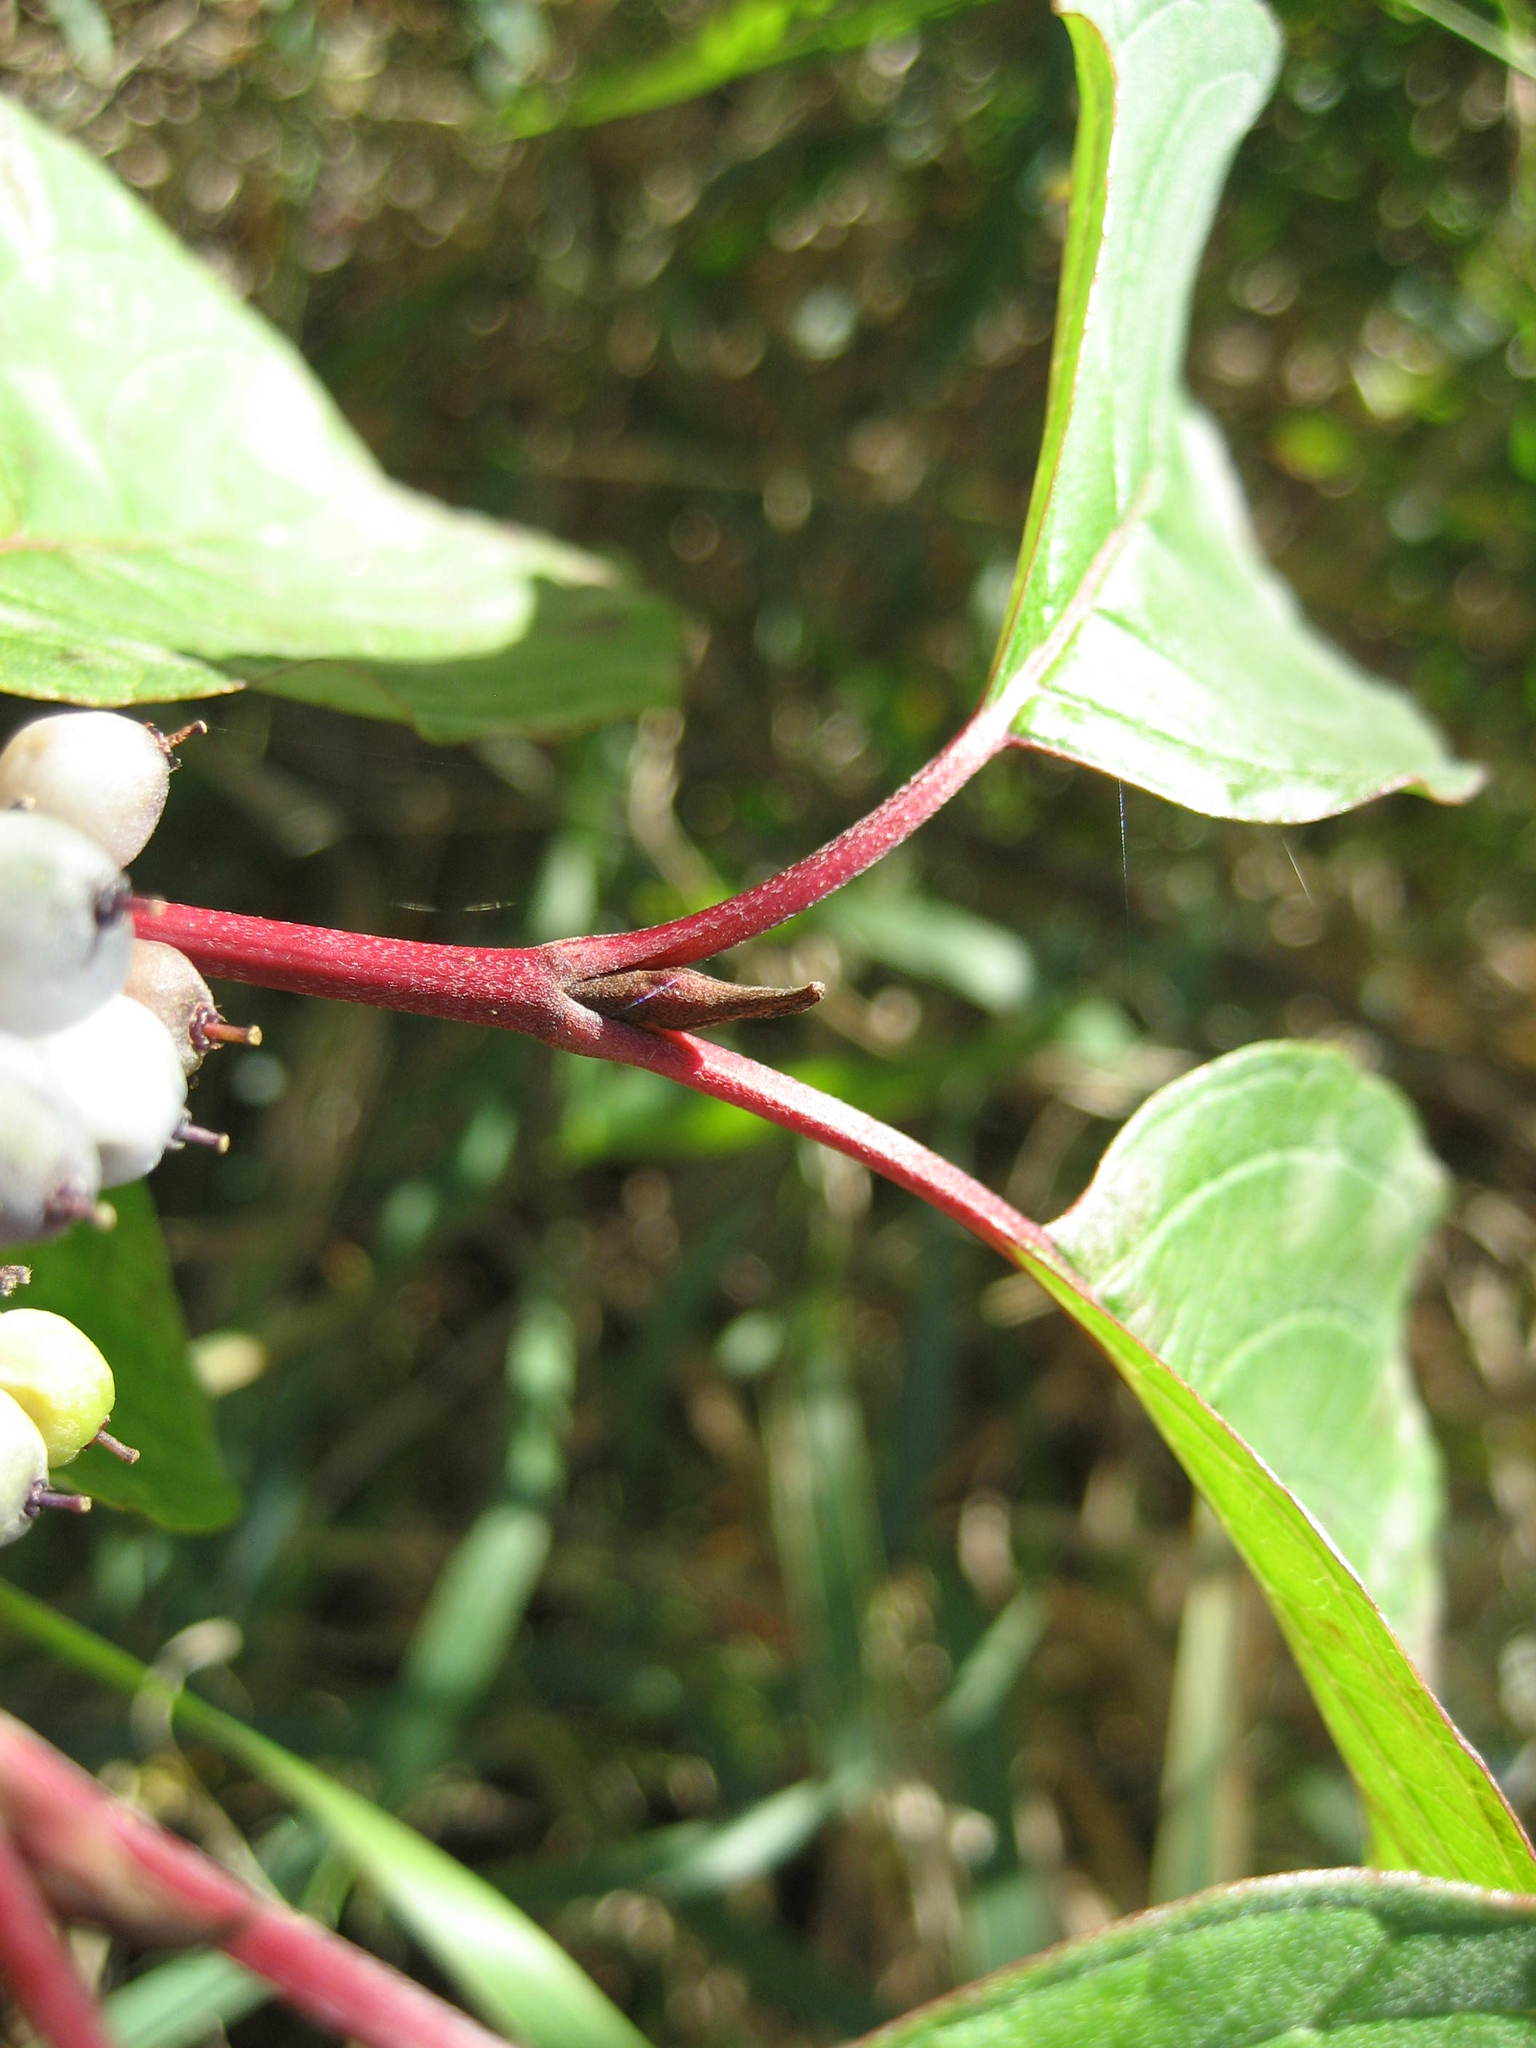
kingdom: Plantae
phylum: Tracheophyta
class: Magnoliopsida
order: Cornales
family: Cornaceae
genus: Cornus
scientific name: Cornus sericea
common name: Red-osier dogwood
